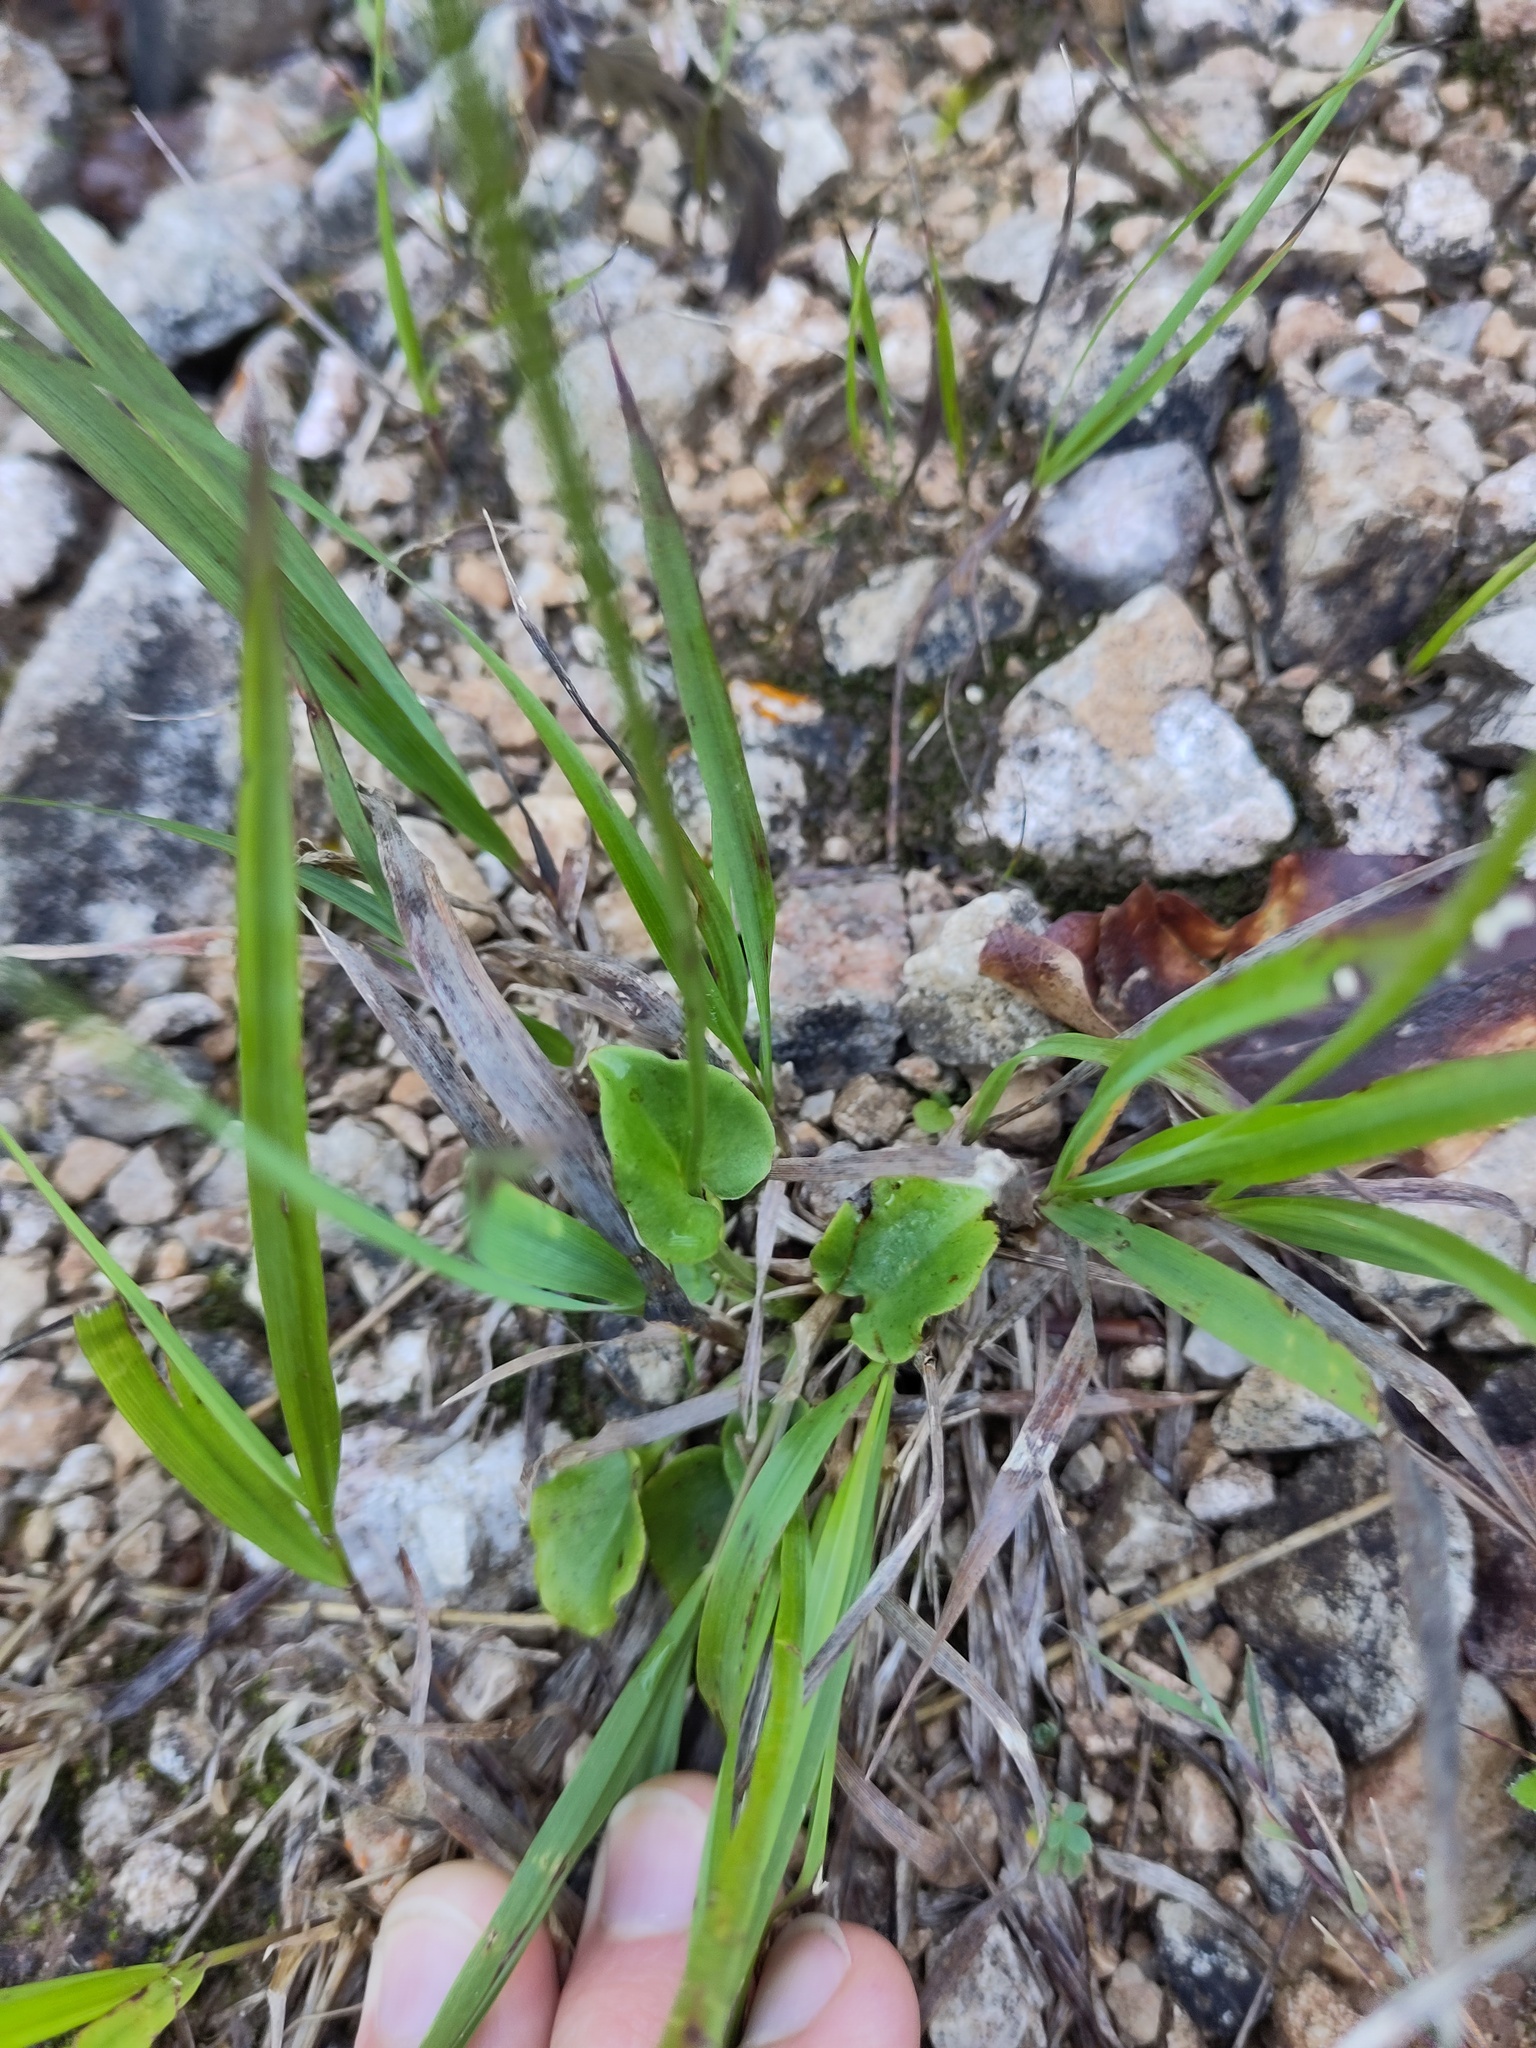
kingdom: Plantae
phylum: Tracheophyta
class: Magnoliopsida
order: Celastrales
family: Parnassiaceae
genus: Parnassia
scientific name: Parnassia palustris
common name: Grass-of-parnassus
